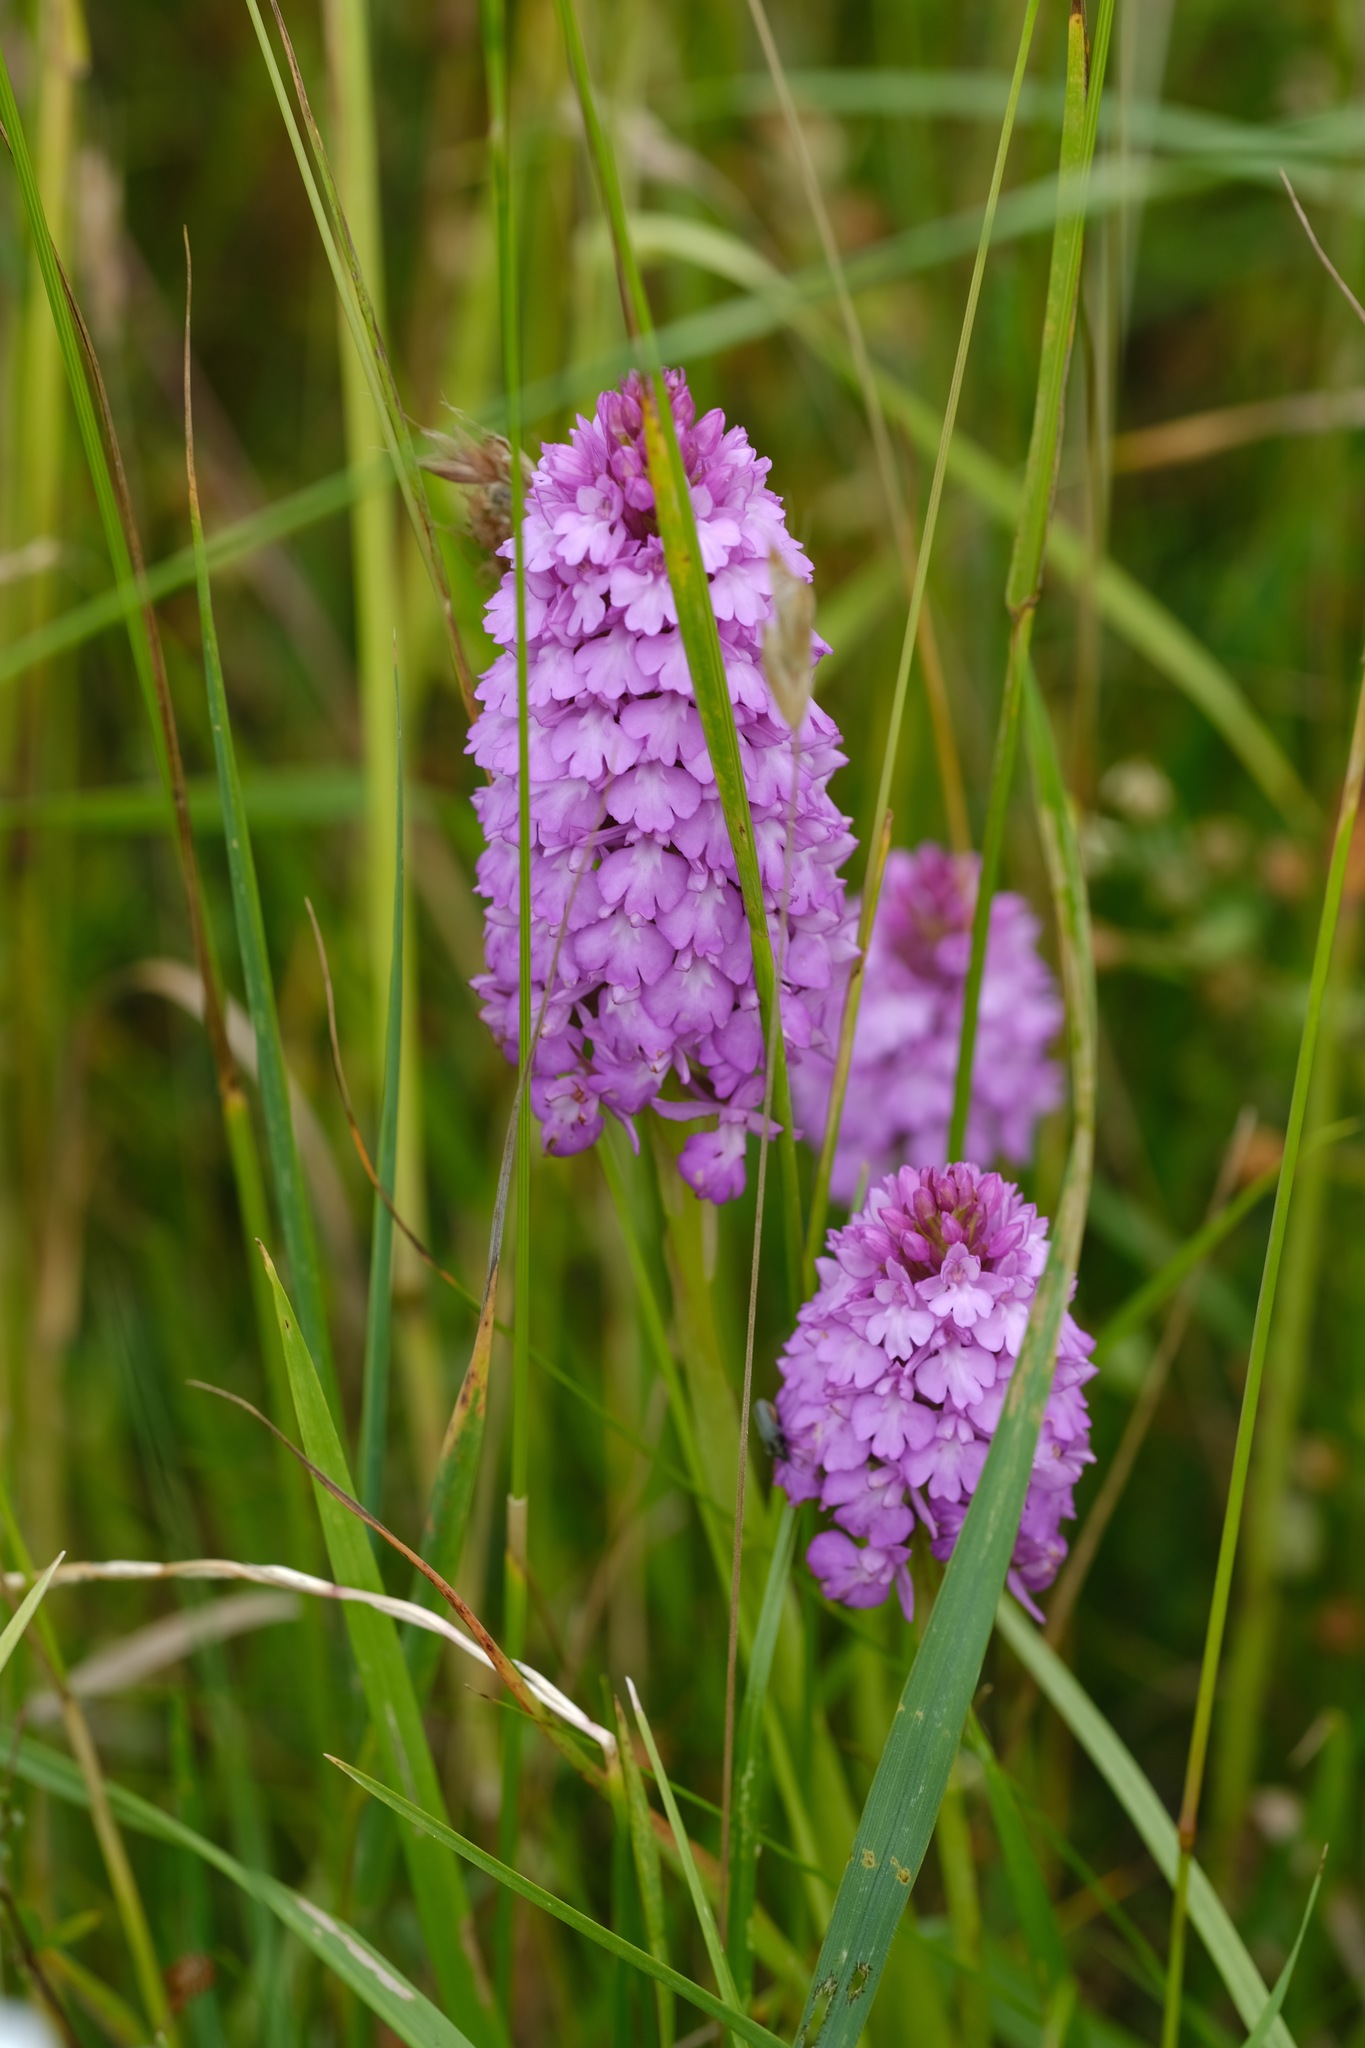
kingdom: Plantae
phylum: Tracheophyta
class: Liliopsida
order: Asparagales
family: Orchidaceae
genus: Anacamptis
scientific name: Anacamptis pyramidalis
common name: Pyramidal orchid
